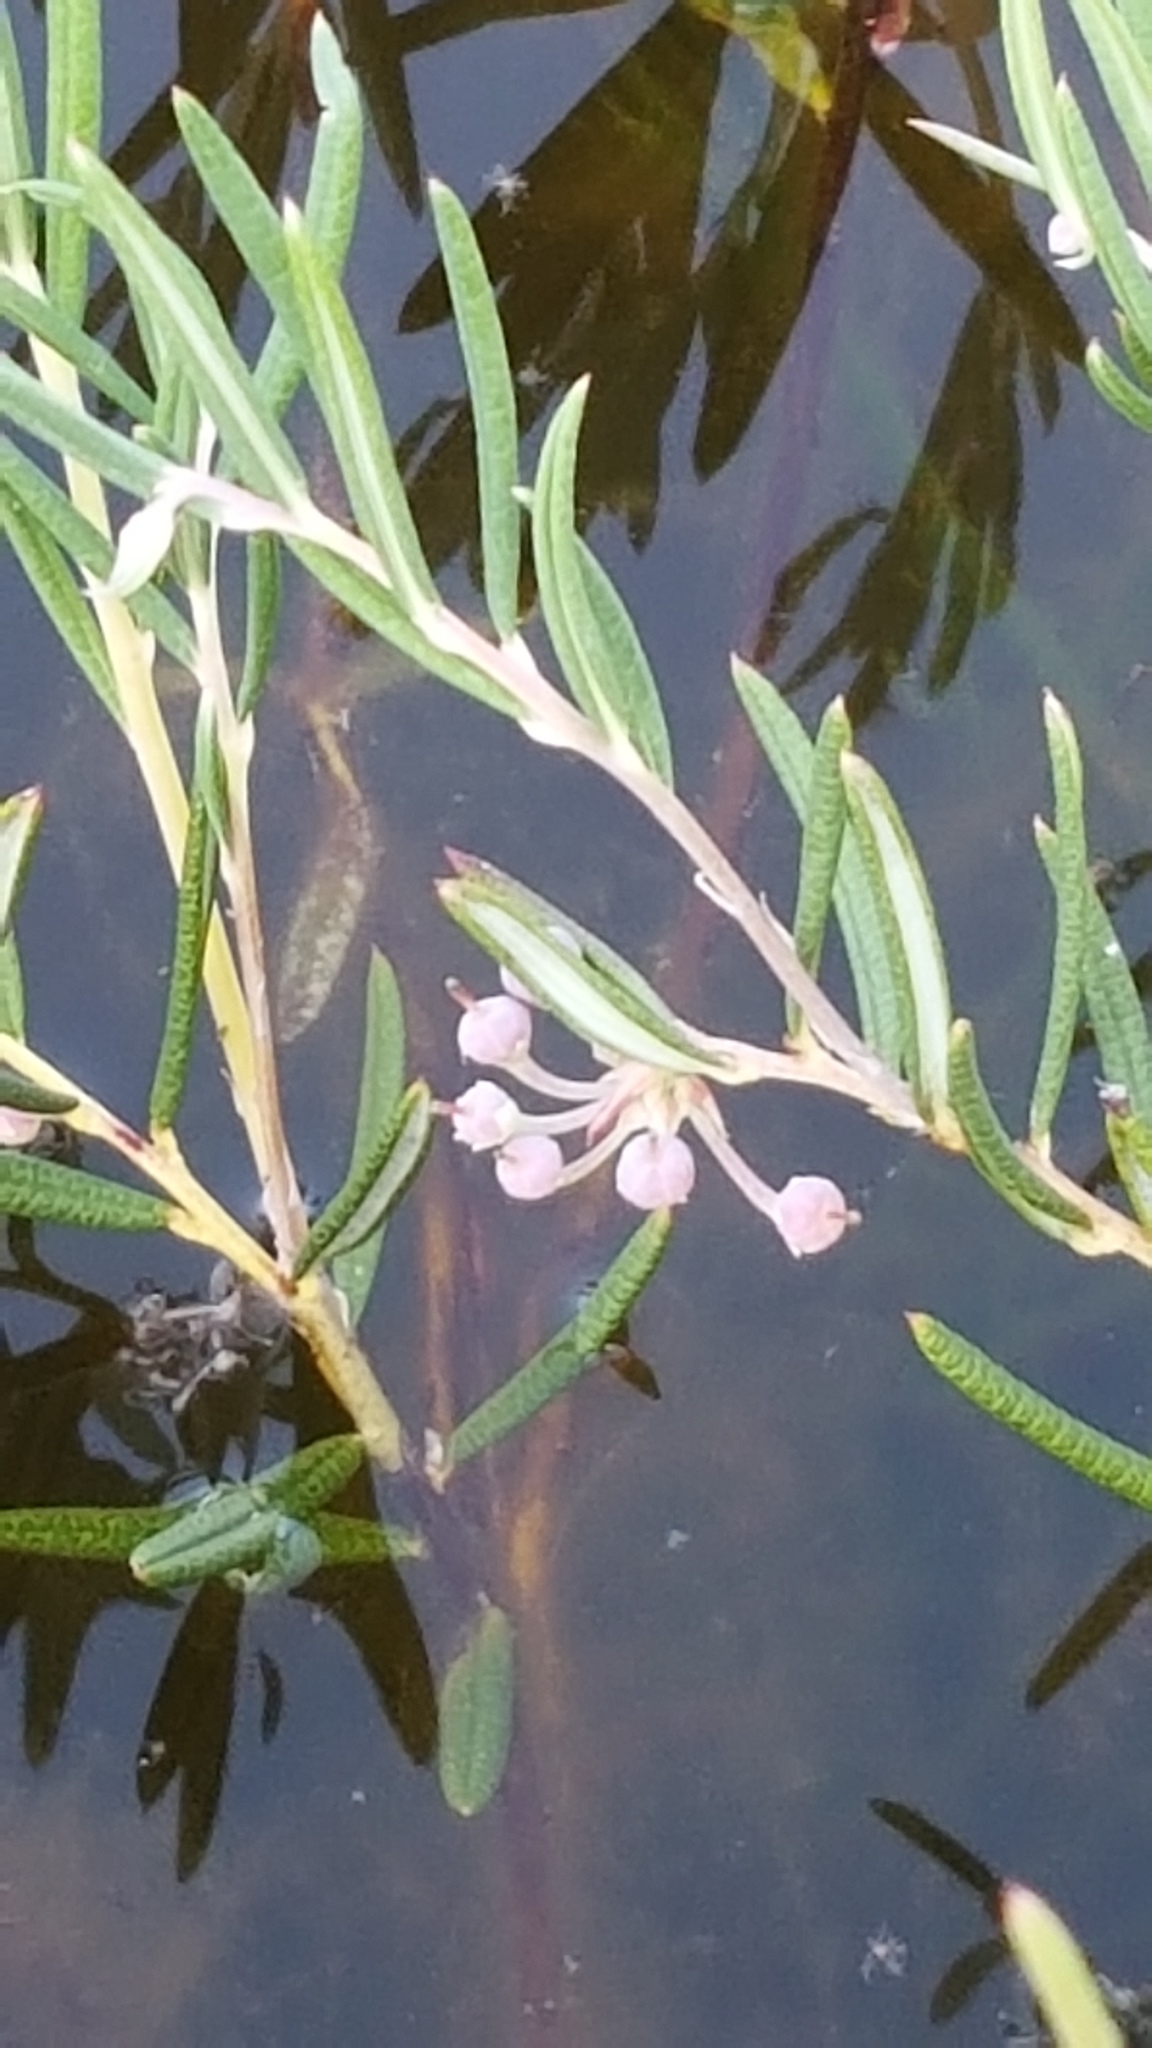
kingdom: Plantae
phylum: Tracheophyta
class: Magnoliopsida
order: Ericales
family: Ericaceae
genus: Andromeda
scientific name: Andromeda polifolia
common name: Bog-rosemary
